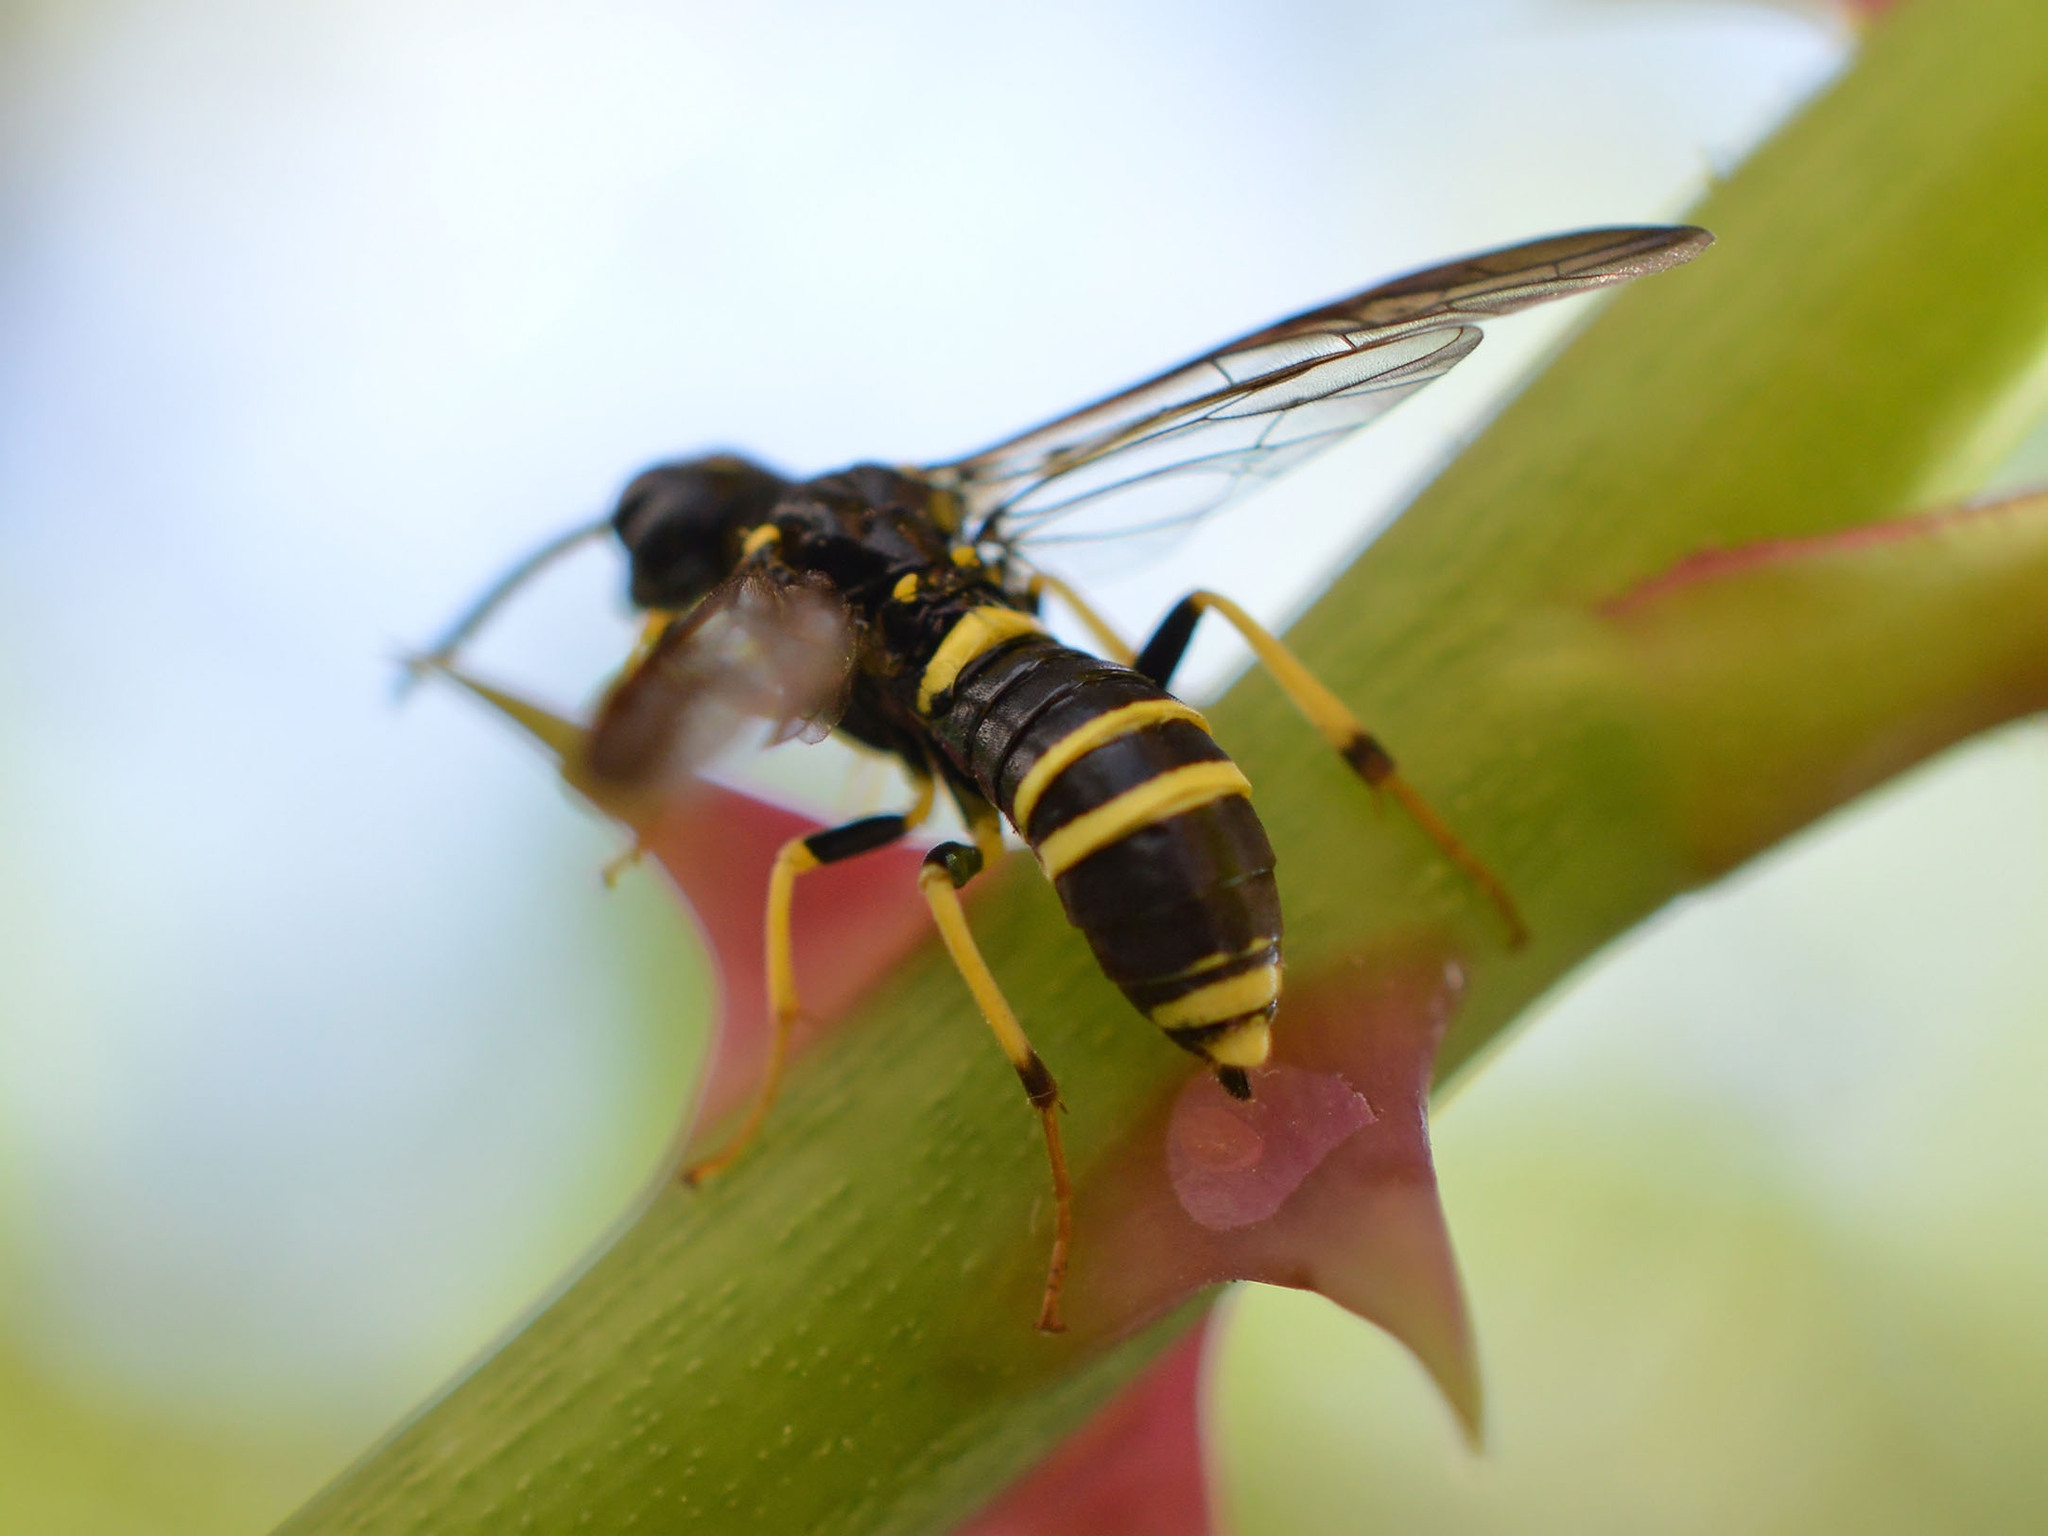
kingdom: Animalia
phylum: Arthropoda
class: Insecta
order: Hymenoptera
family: Tenthredinidae
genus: Allantus
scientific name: Allantus viennensis
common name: Sawfly
